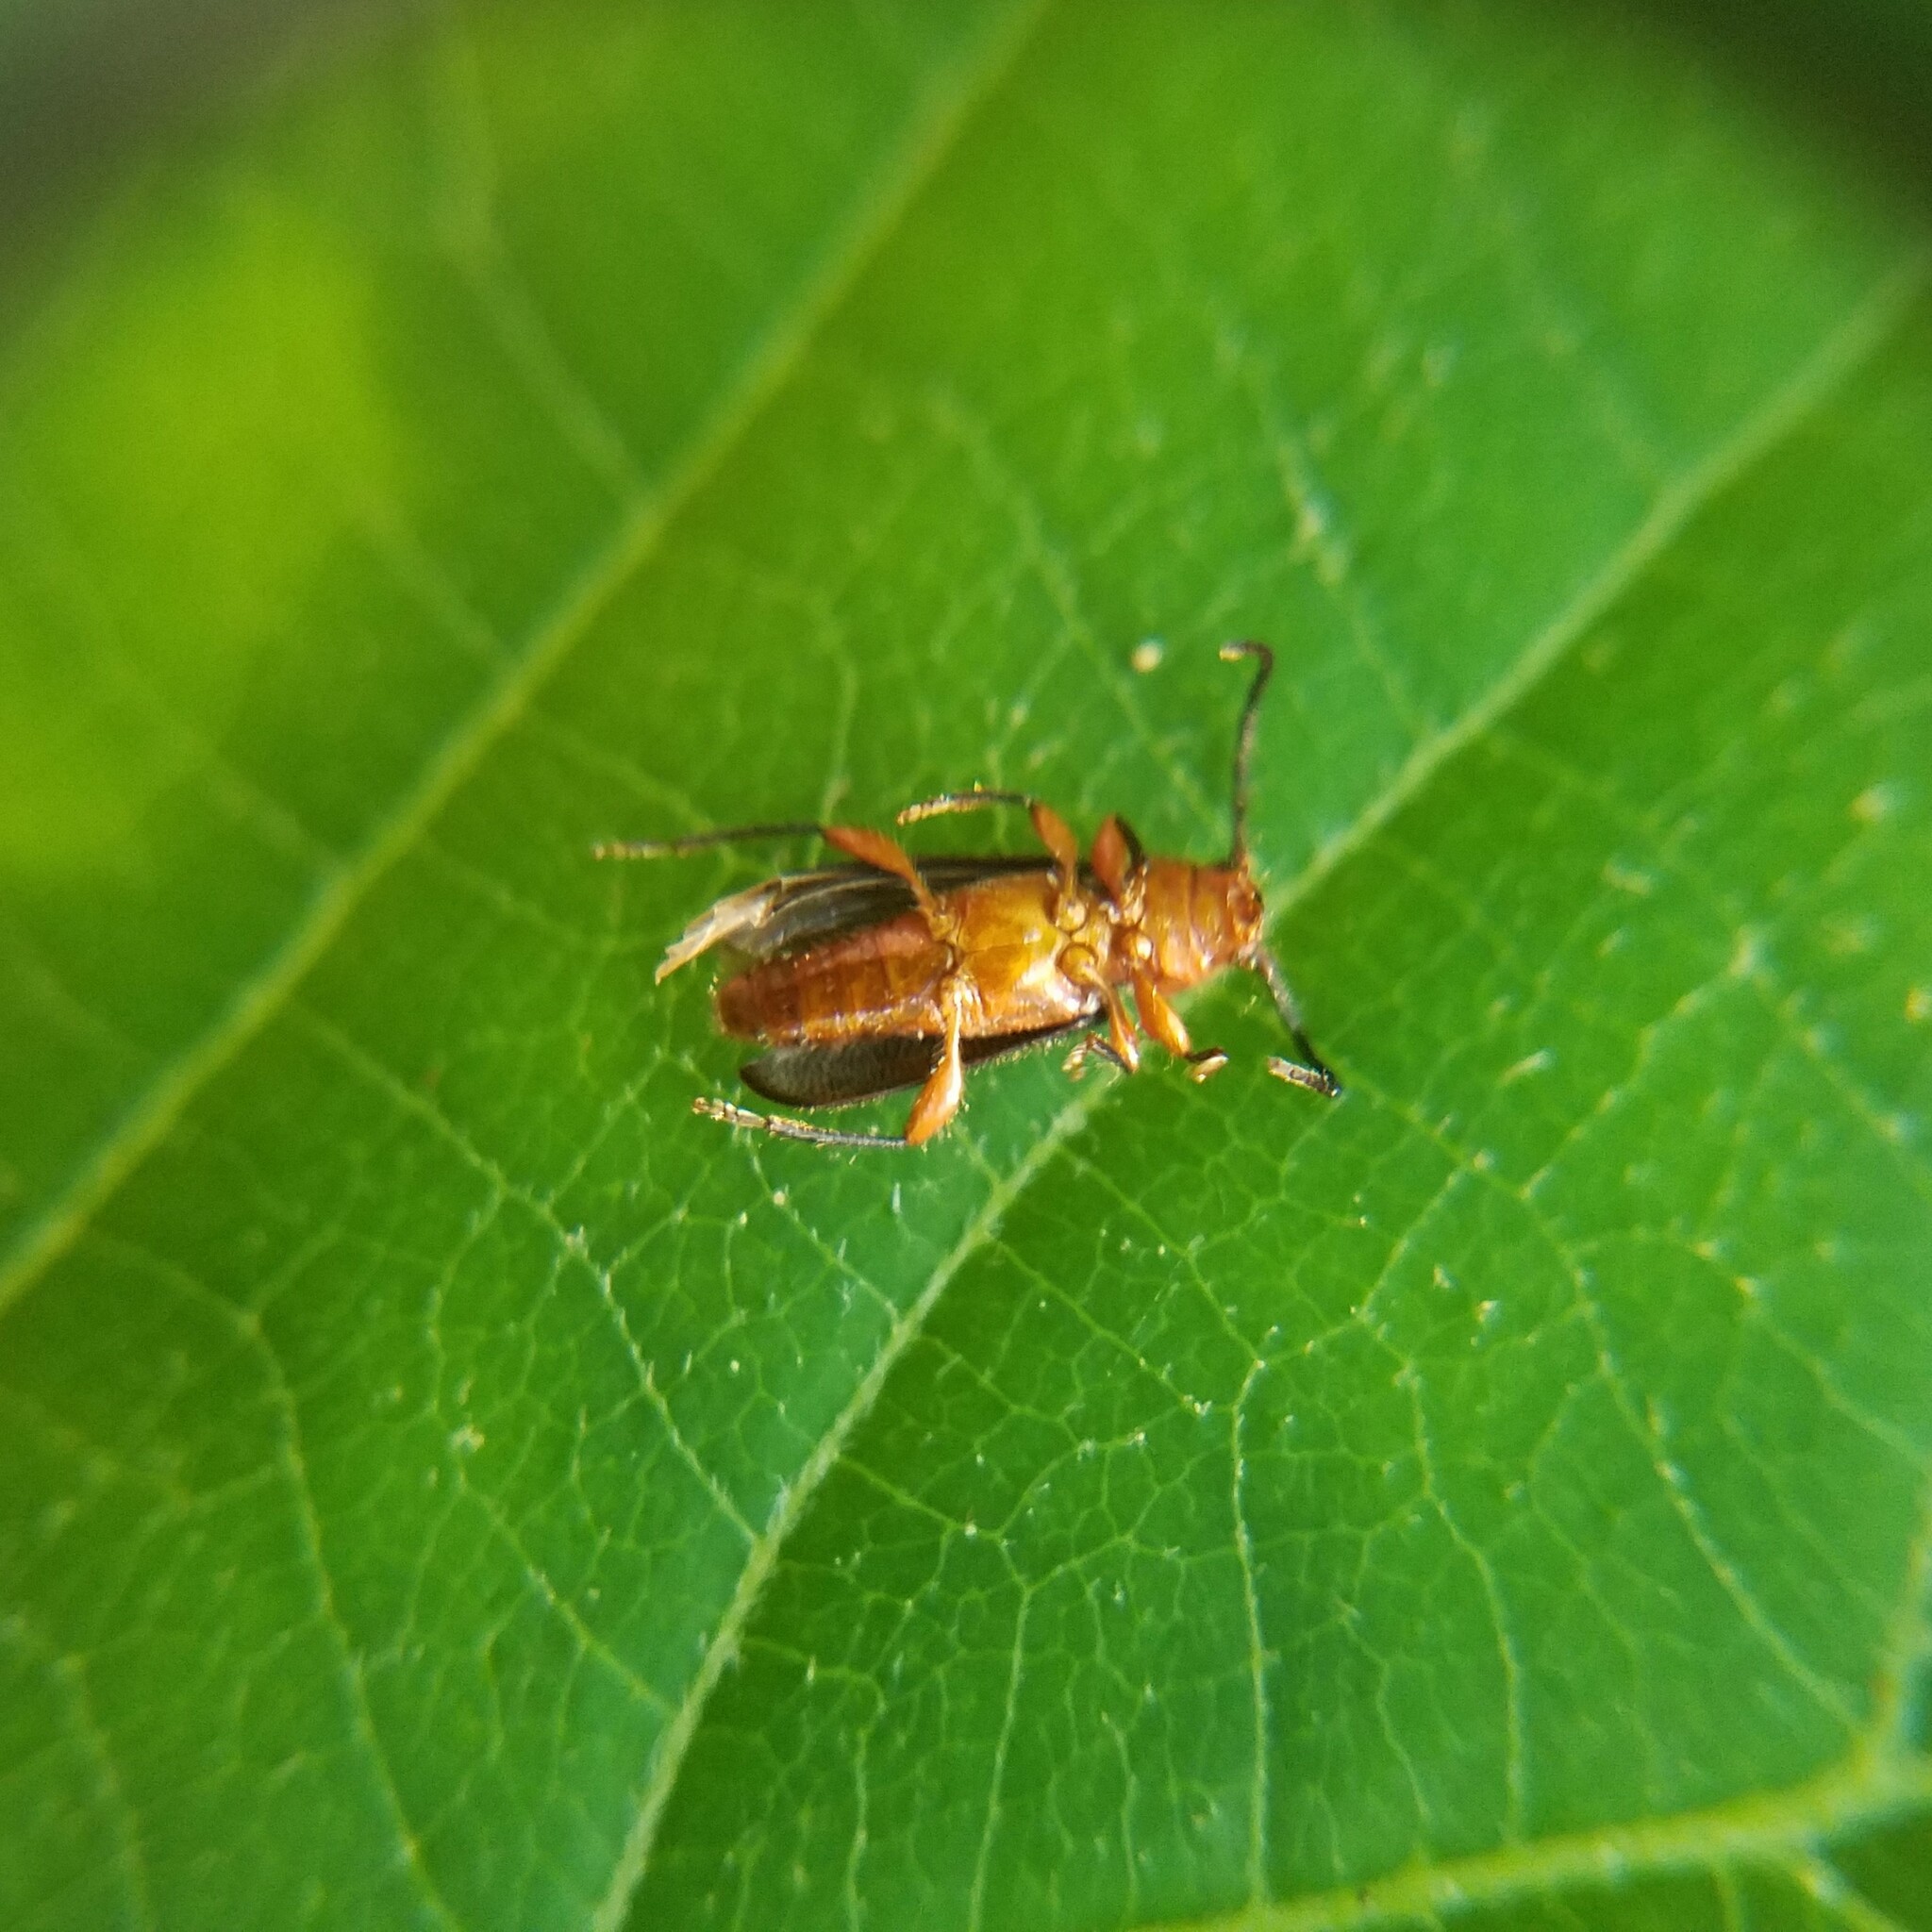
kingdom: Animalia
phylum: Arthropoda
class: Insecta
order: Coleoptera
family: Cerambycidae
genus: Phymatodes
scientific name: Phymatodes amoenus
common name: Grape-vine phymatodes
